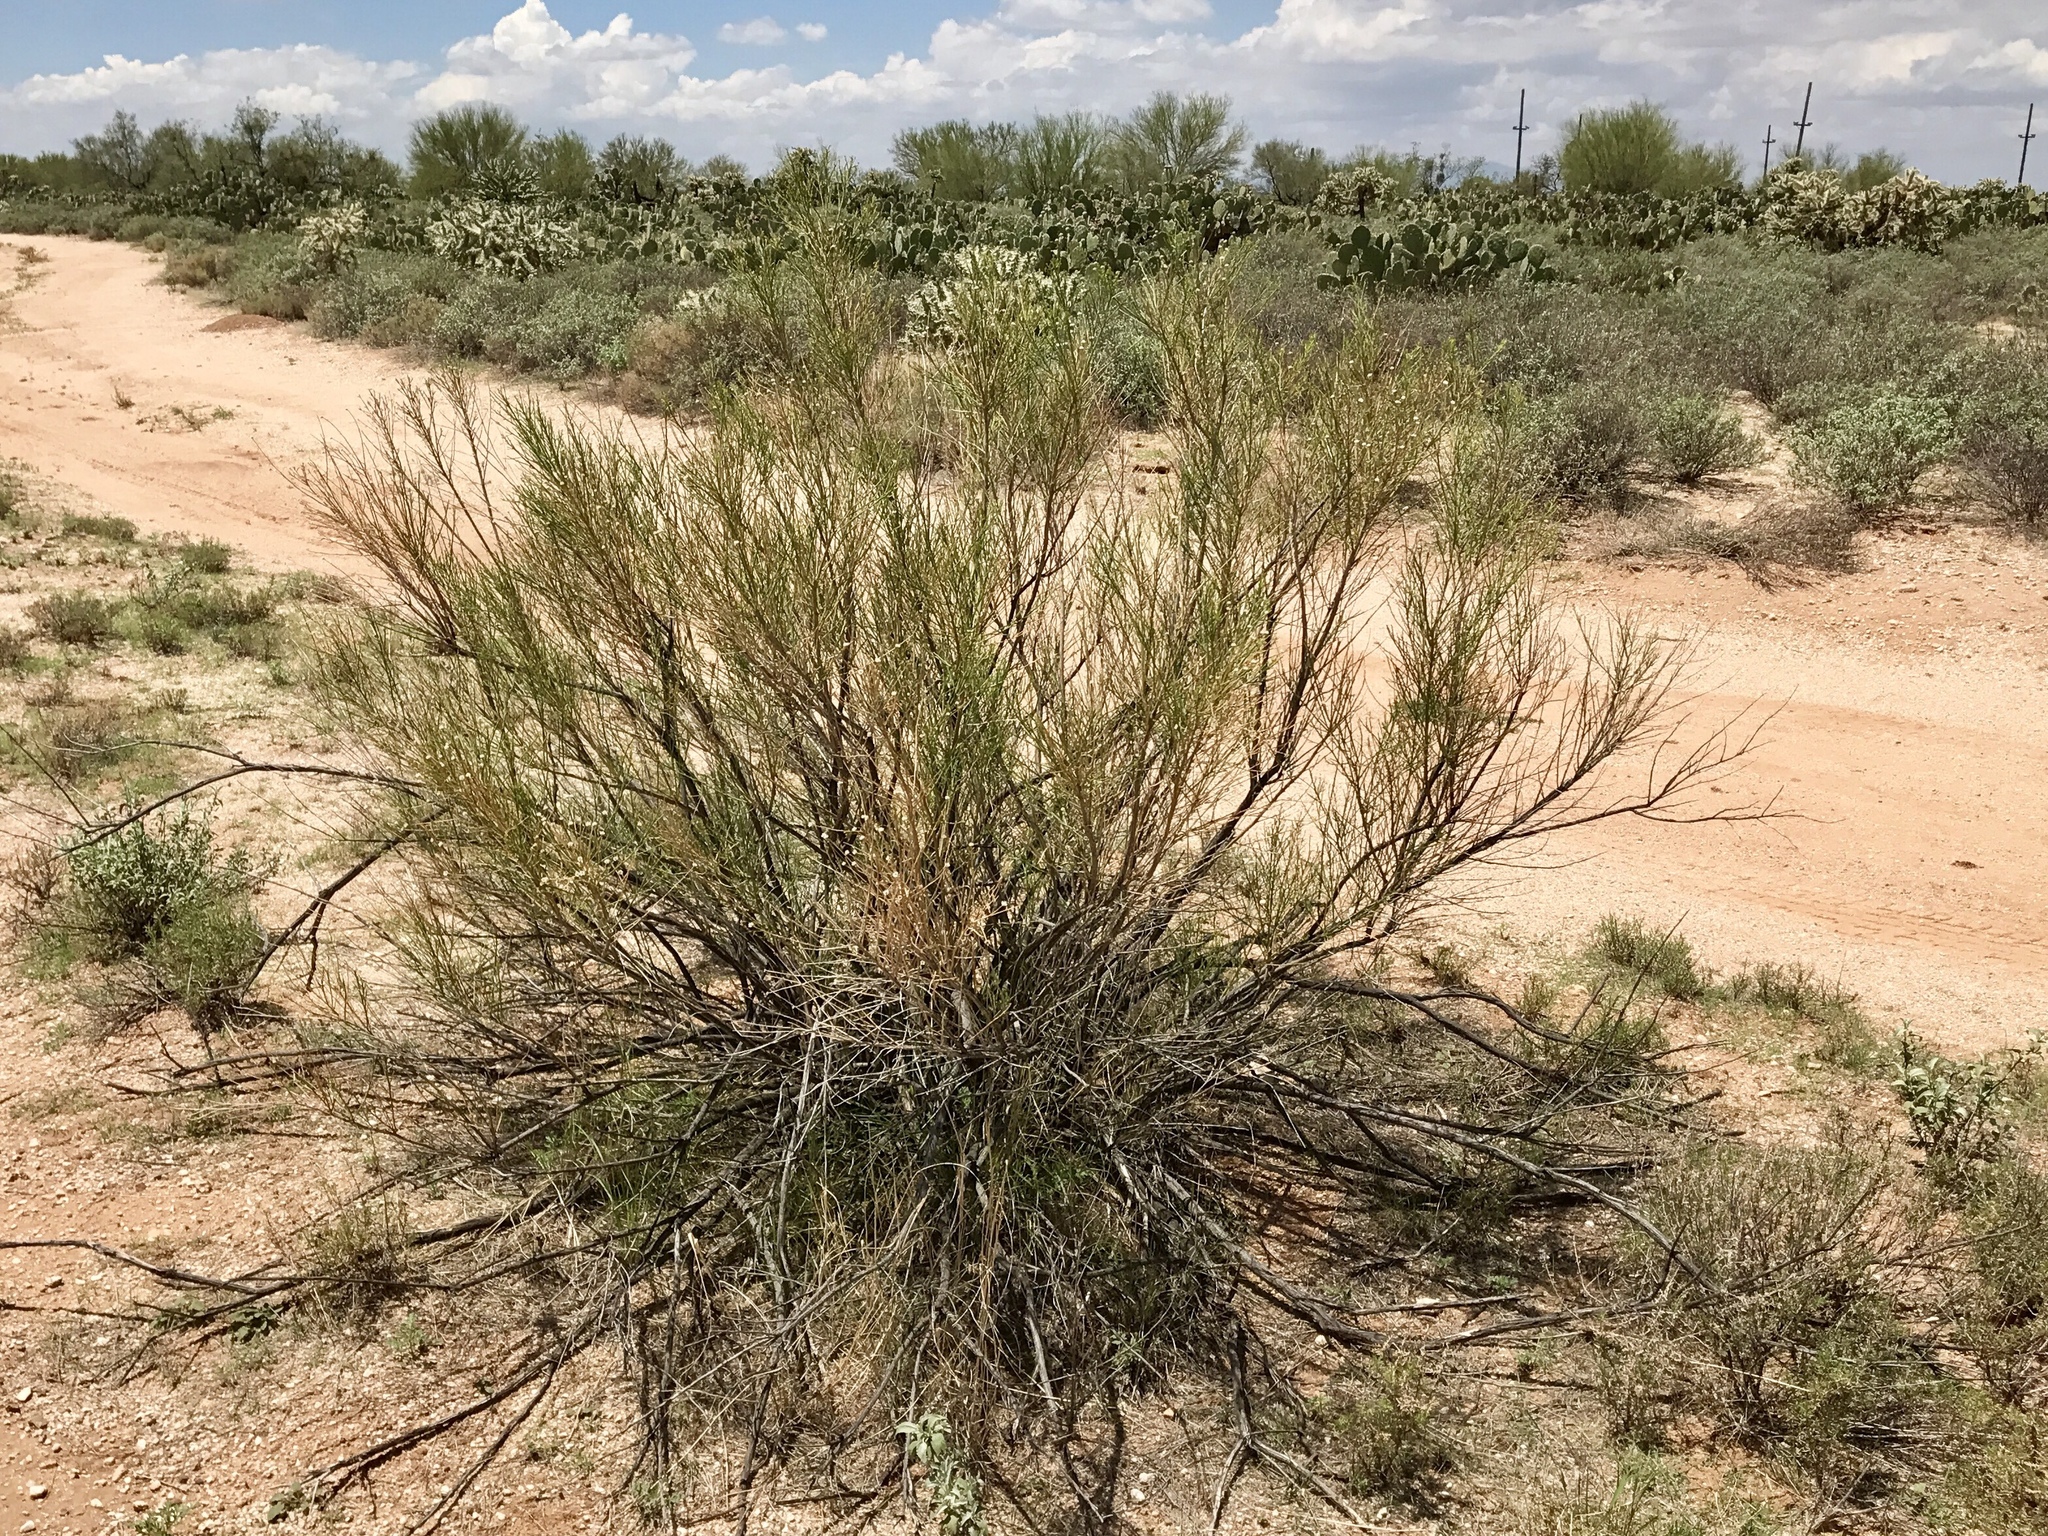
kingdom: Plantae
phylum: Tracheophyta
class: Magnoliopsida
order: Asterales
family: Asteraceae
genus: Baccharis
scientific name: Baccharis sarothroides
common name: Desert-broom
